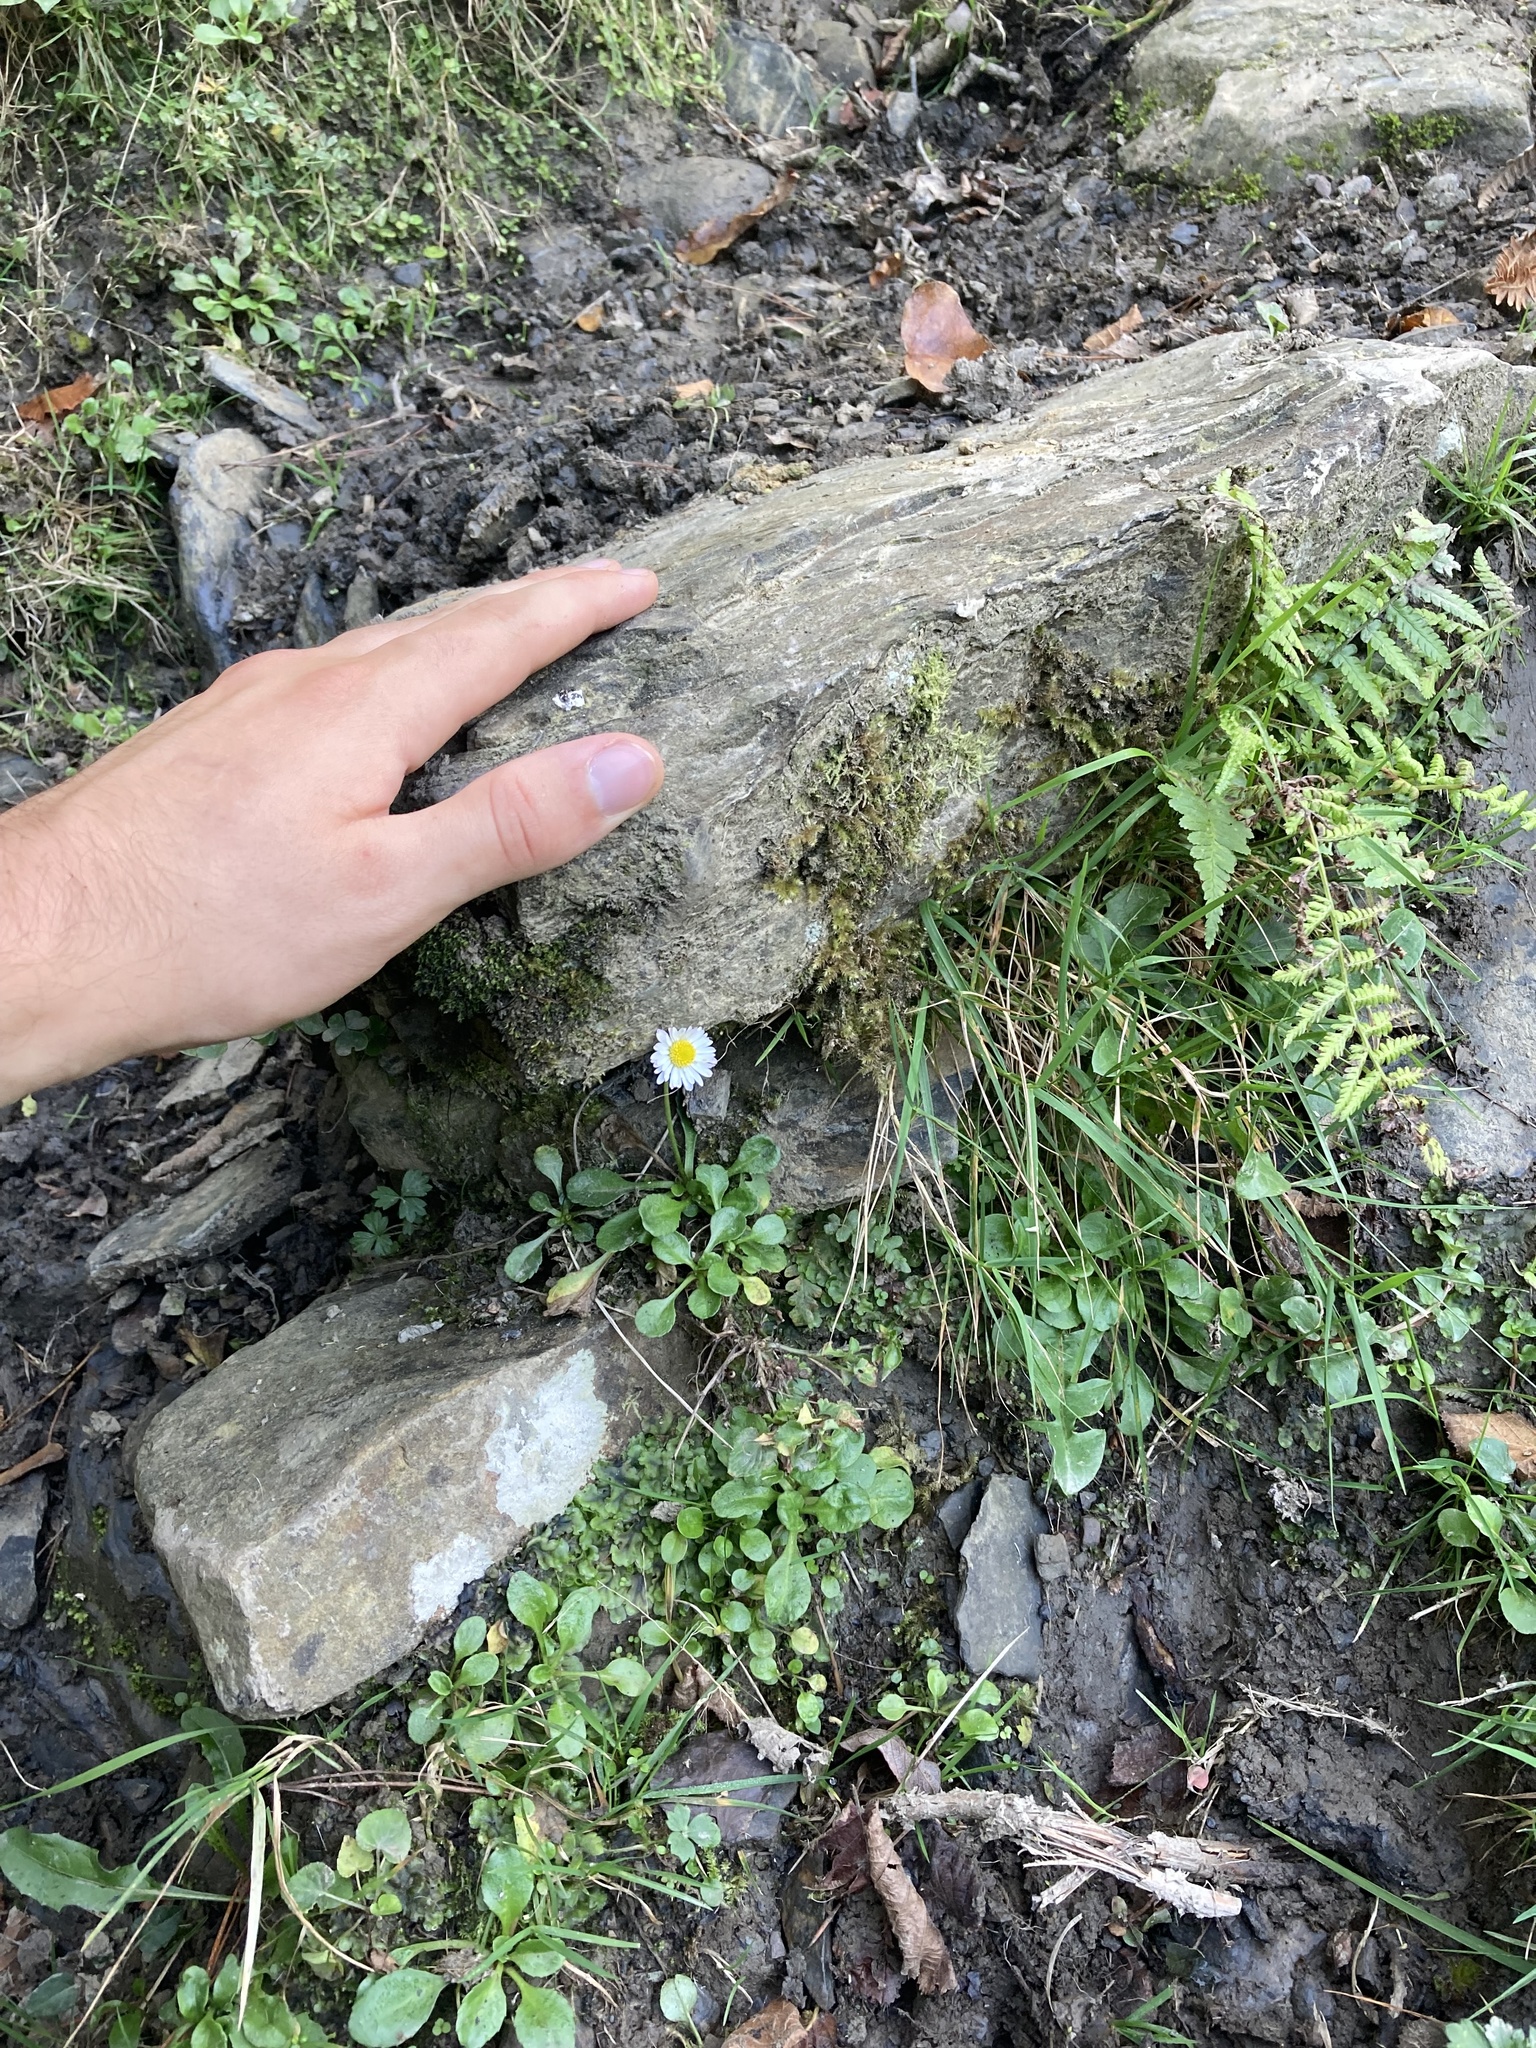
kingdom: Plantae
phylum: Tracheophyta
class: Magnoliopsida
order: Asterales
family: Asteraceae
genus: Bellis
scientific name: Bellis perennis
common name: Lawndaisy
